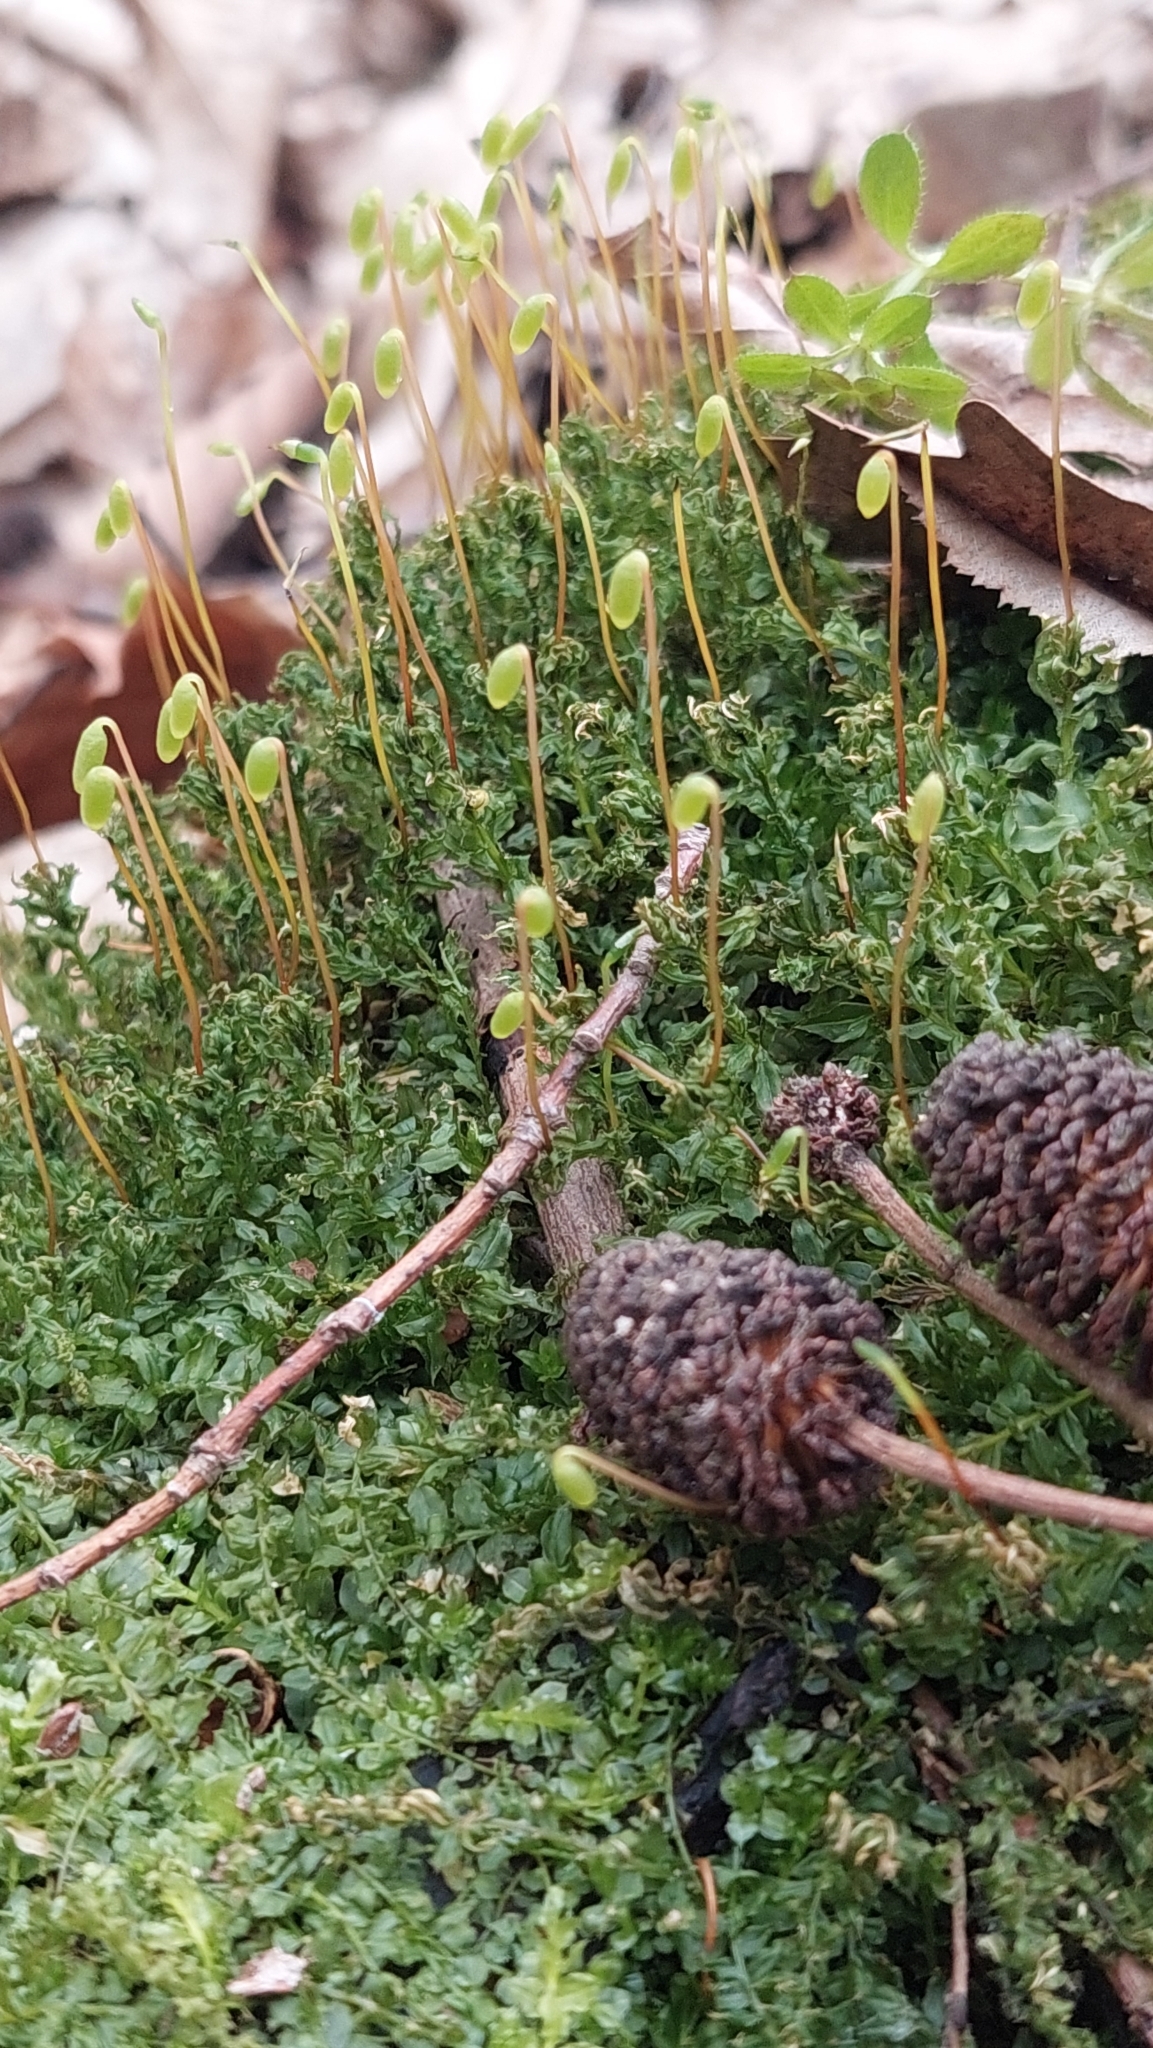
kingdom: Plantae
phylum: Bryophyta
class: Bryopsida
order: Bryales
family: Mniaceae
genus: Plagiomnium
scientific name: Plagiomnium undulatum
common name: Hart's-tongue thyme-moss
